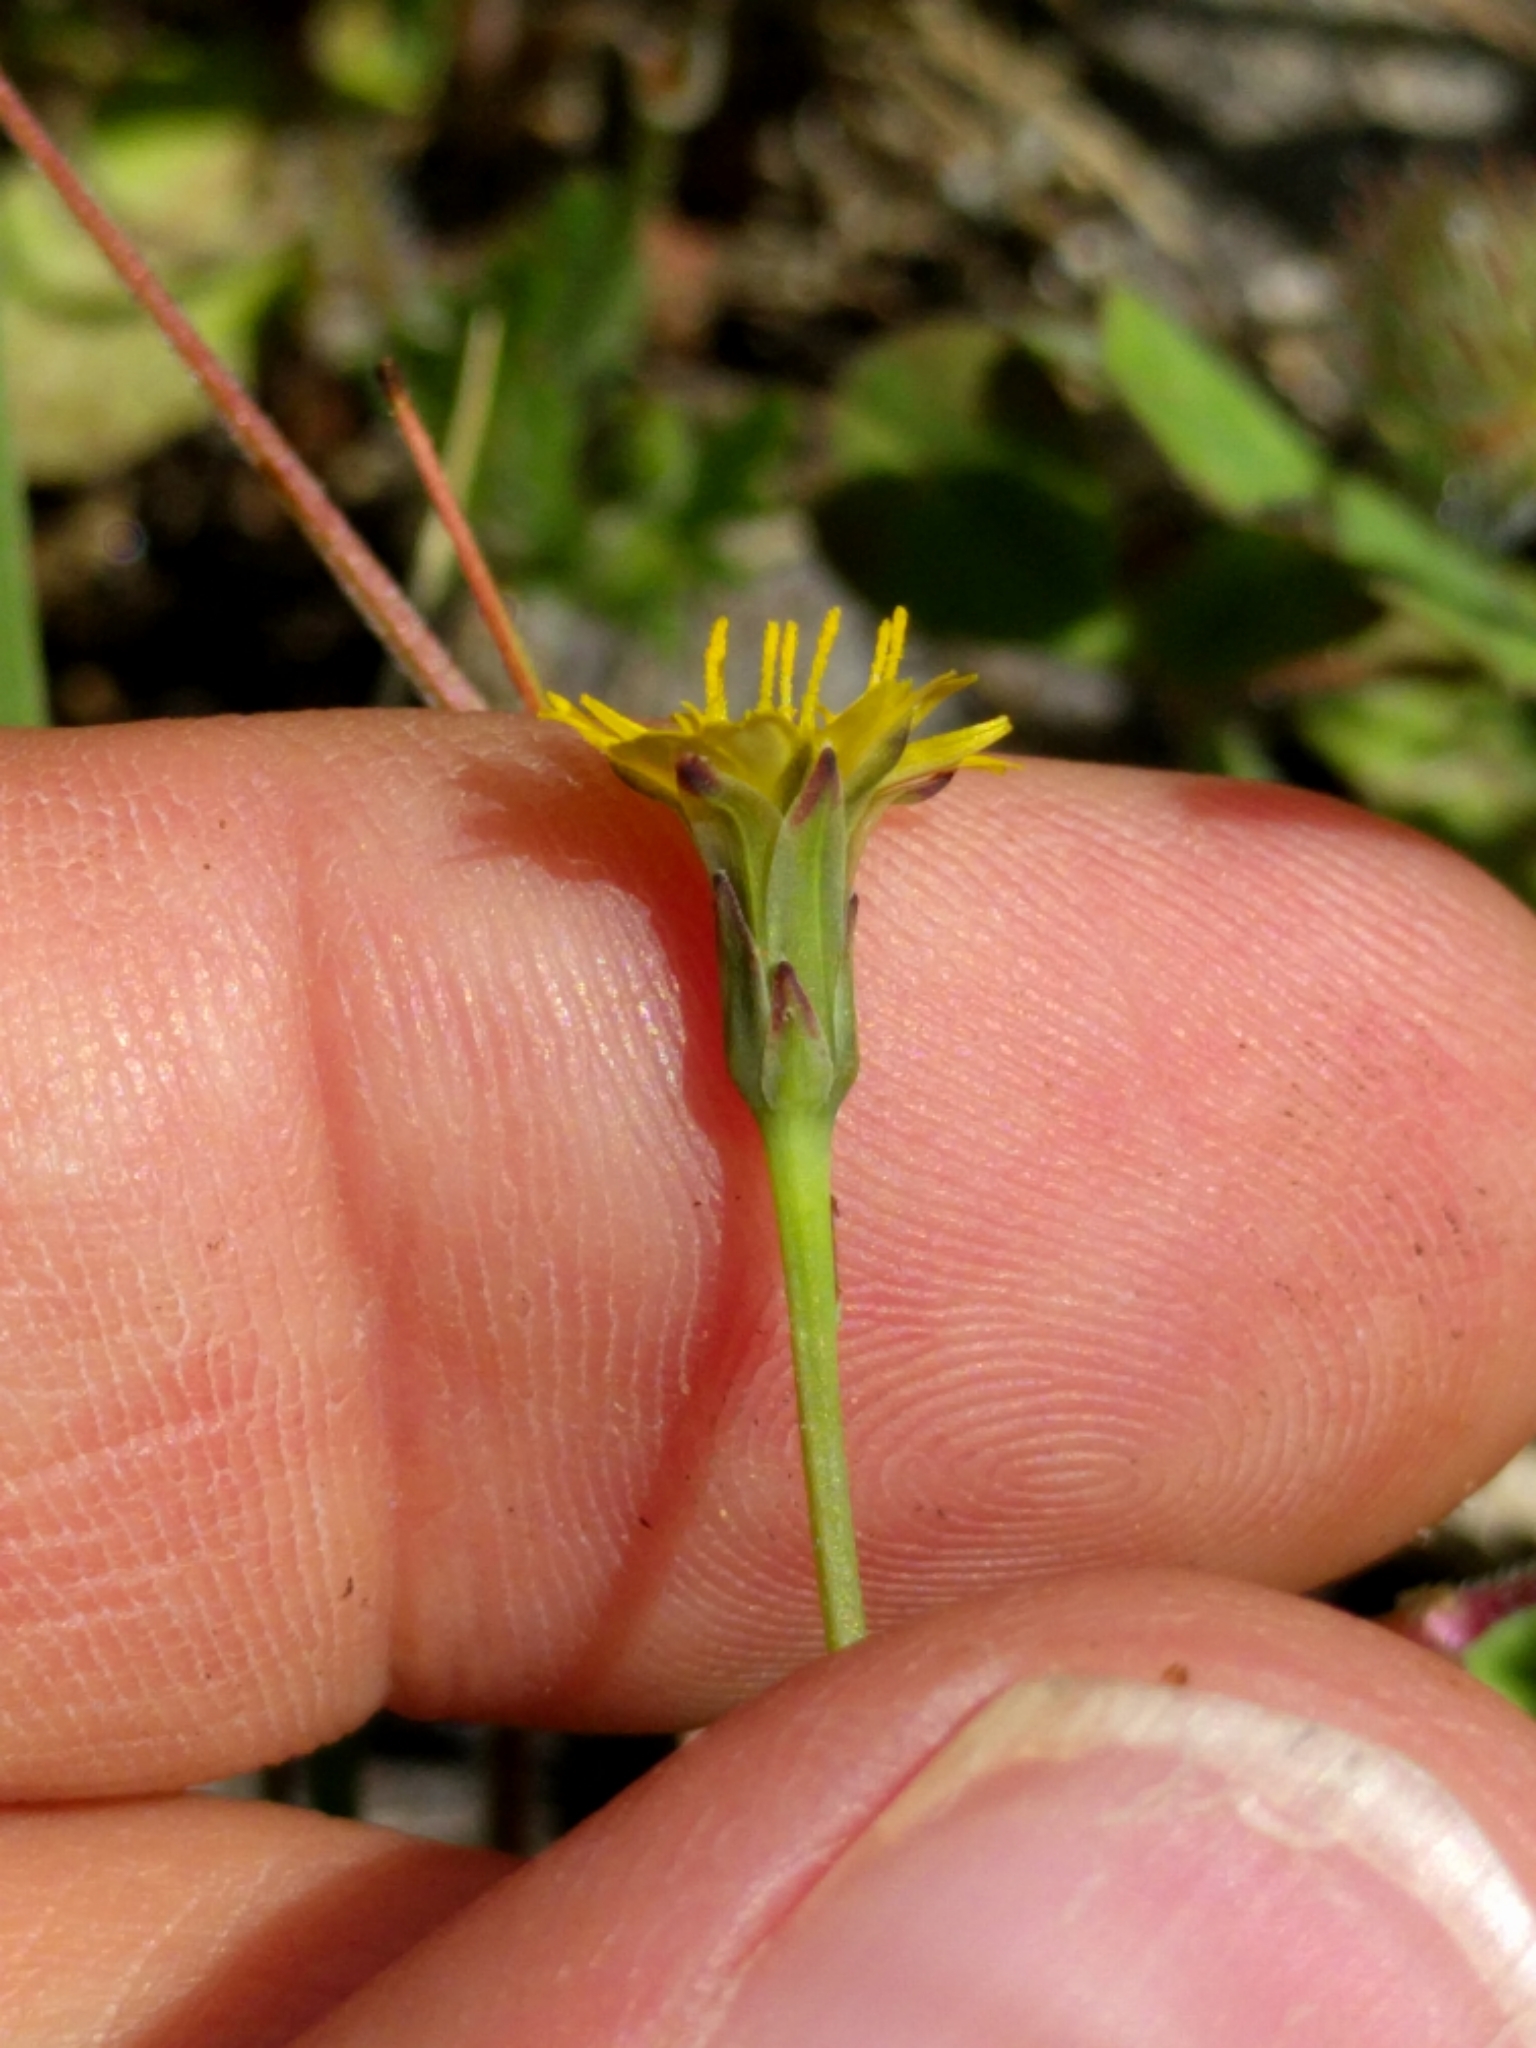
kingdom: Plantae
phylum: Tracheophyta
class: Magnoliopsida
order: Asterales
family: Asteraceae
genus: Hypochaeris
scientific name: Hypochaeris glabra
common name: Smooth catsear
